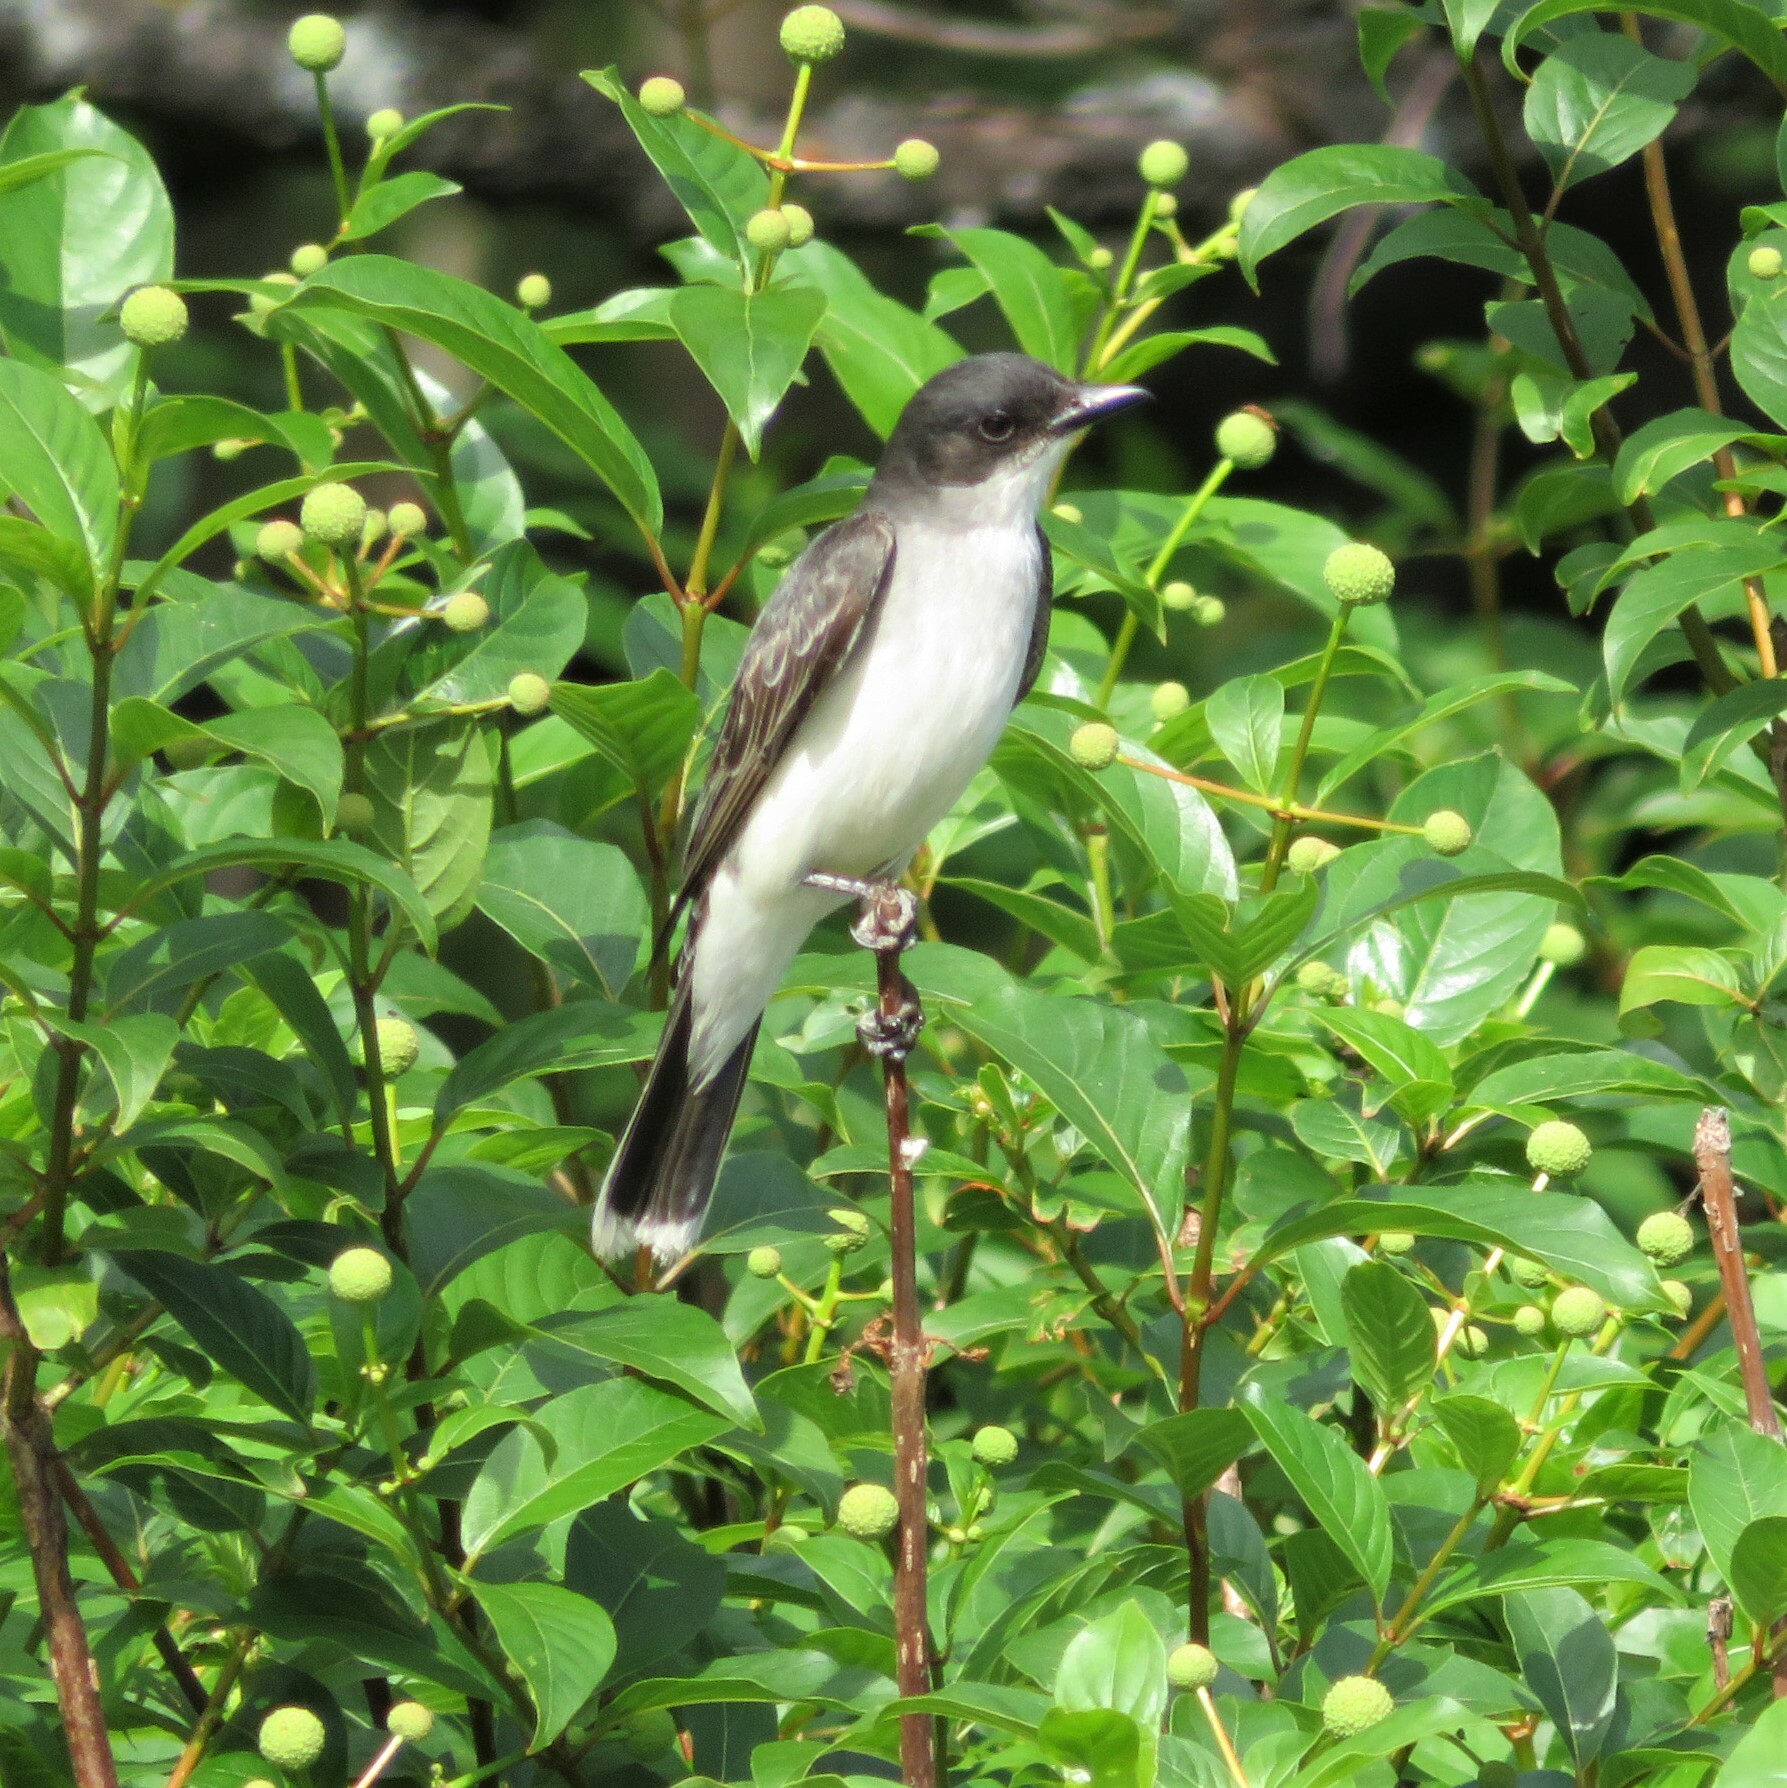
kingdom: Animalia
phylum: Chordata
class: Aves
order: Passeriformes
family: Tyrannidae
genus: Tyrannus
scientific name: Tyrannus tyrannus
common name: Eastern kingbird
